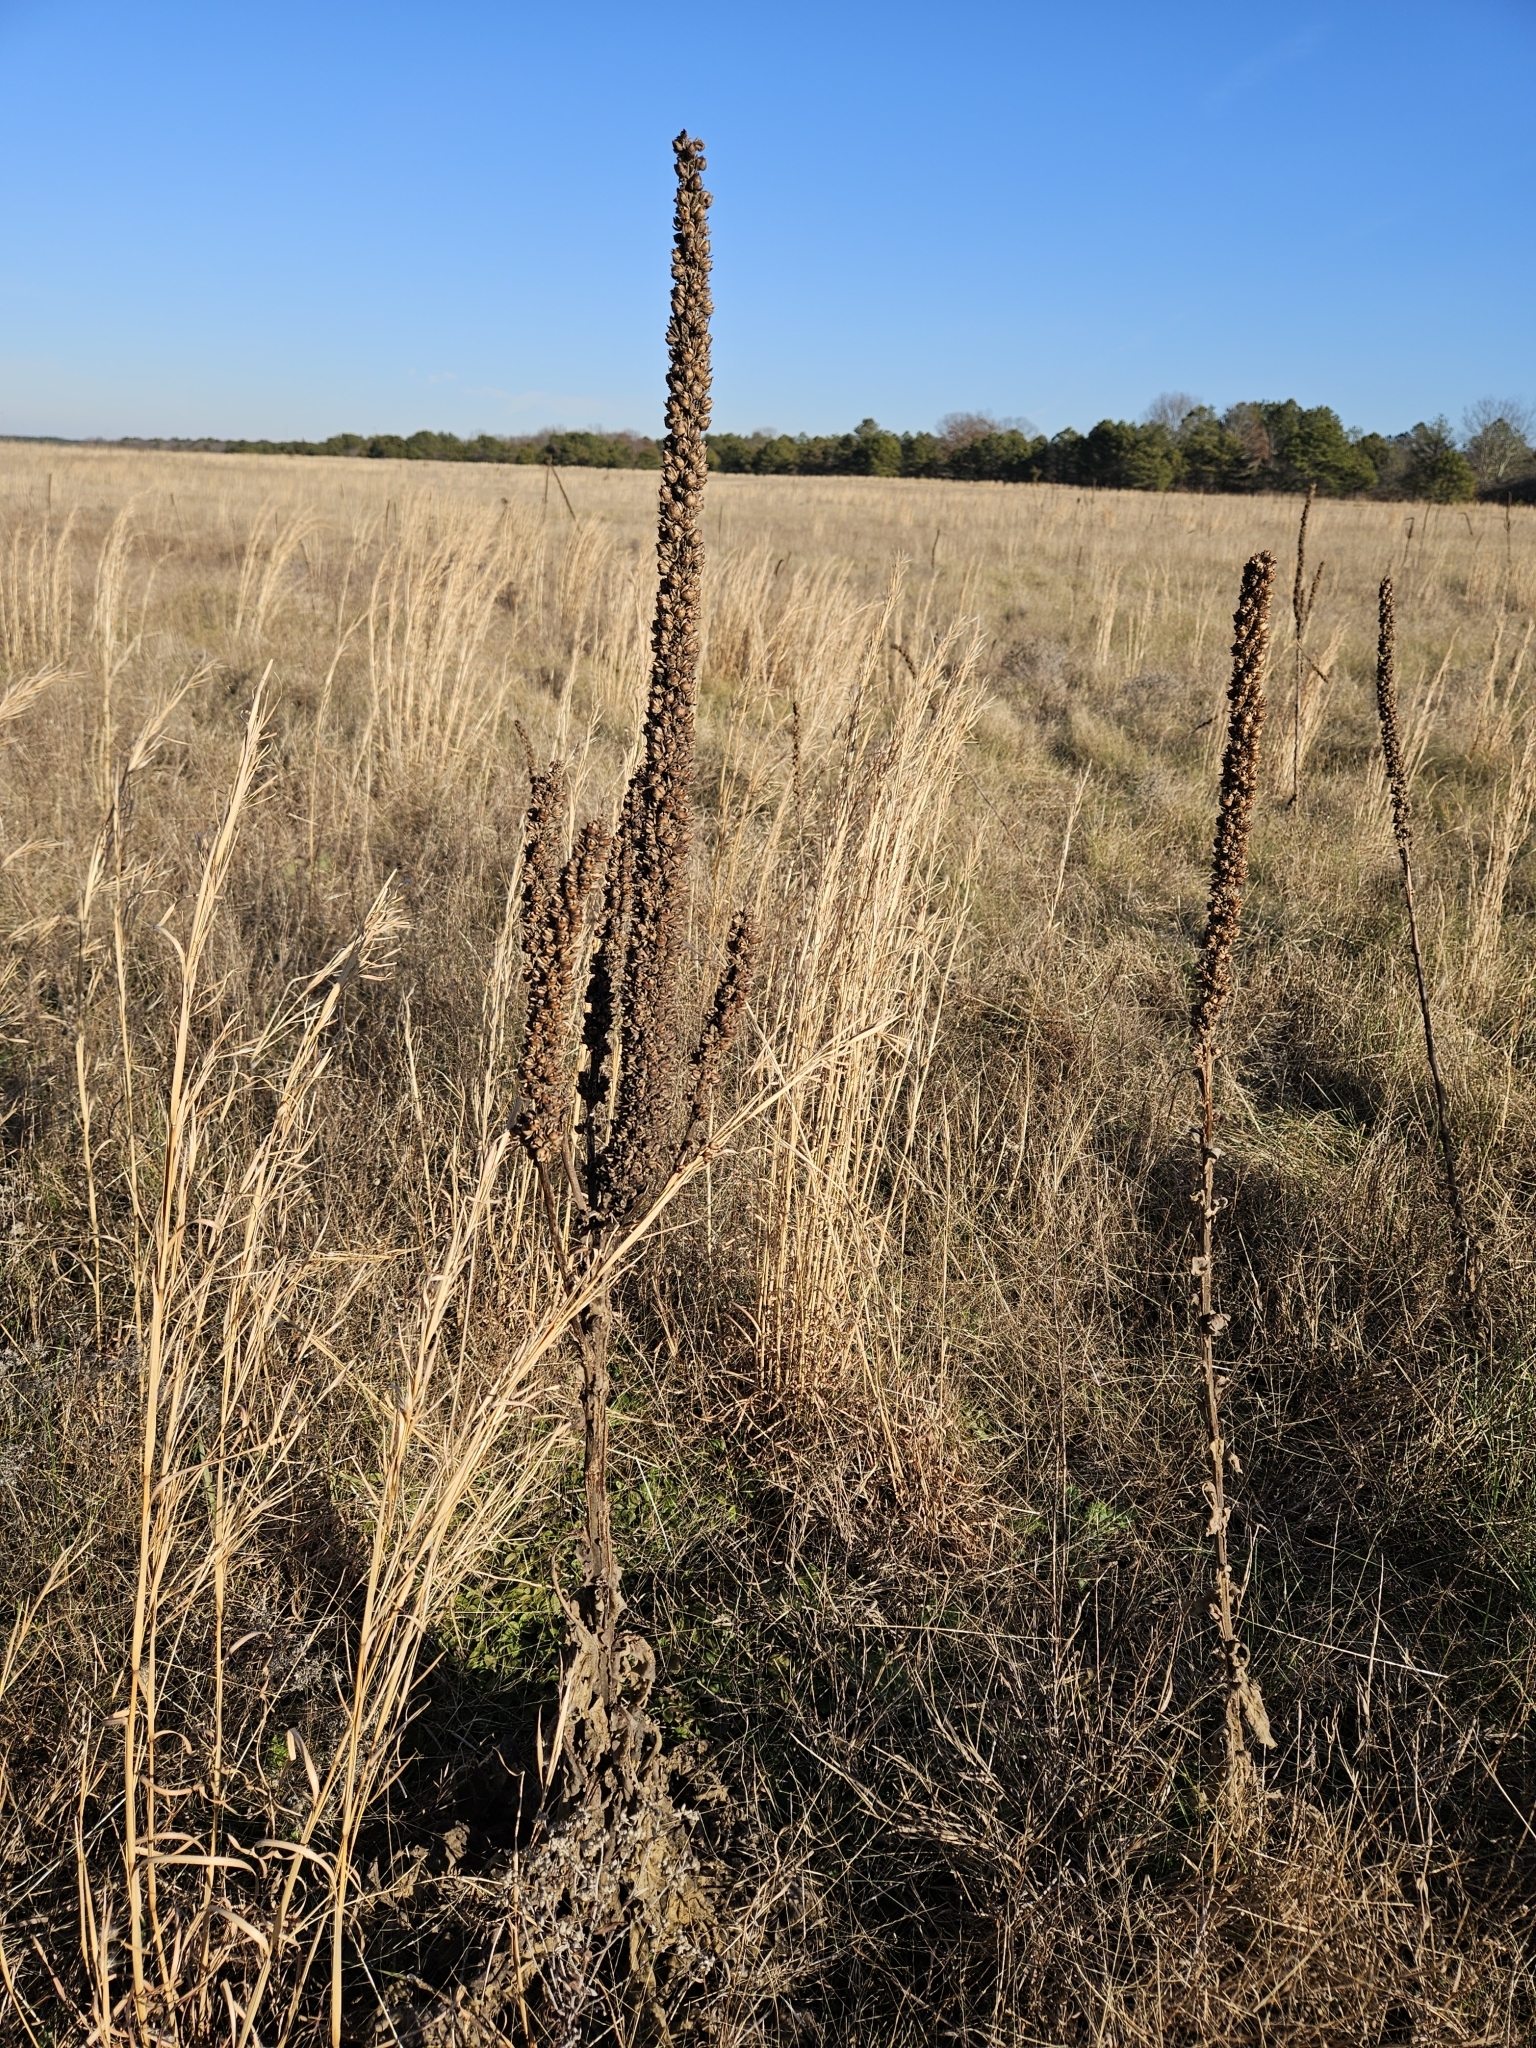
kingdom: Plantae
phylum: Tracheophyta
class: Magnoliopsida
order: Lamiales
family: Scrophulariaceae
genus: Verbascum
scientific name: Verbascum thapsus
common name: Common mullein
